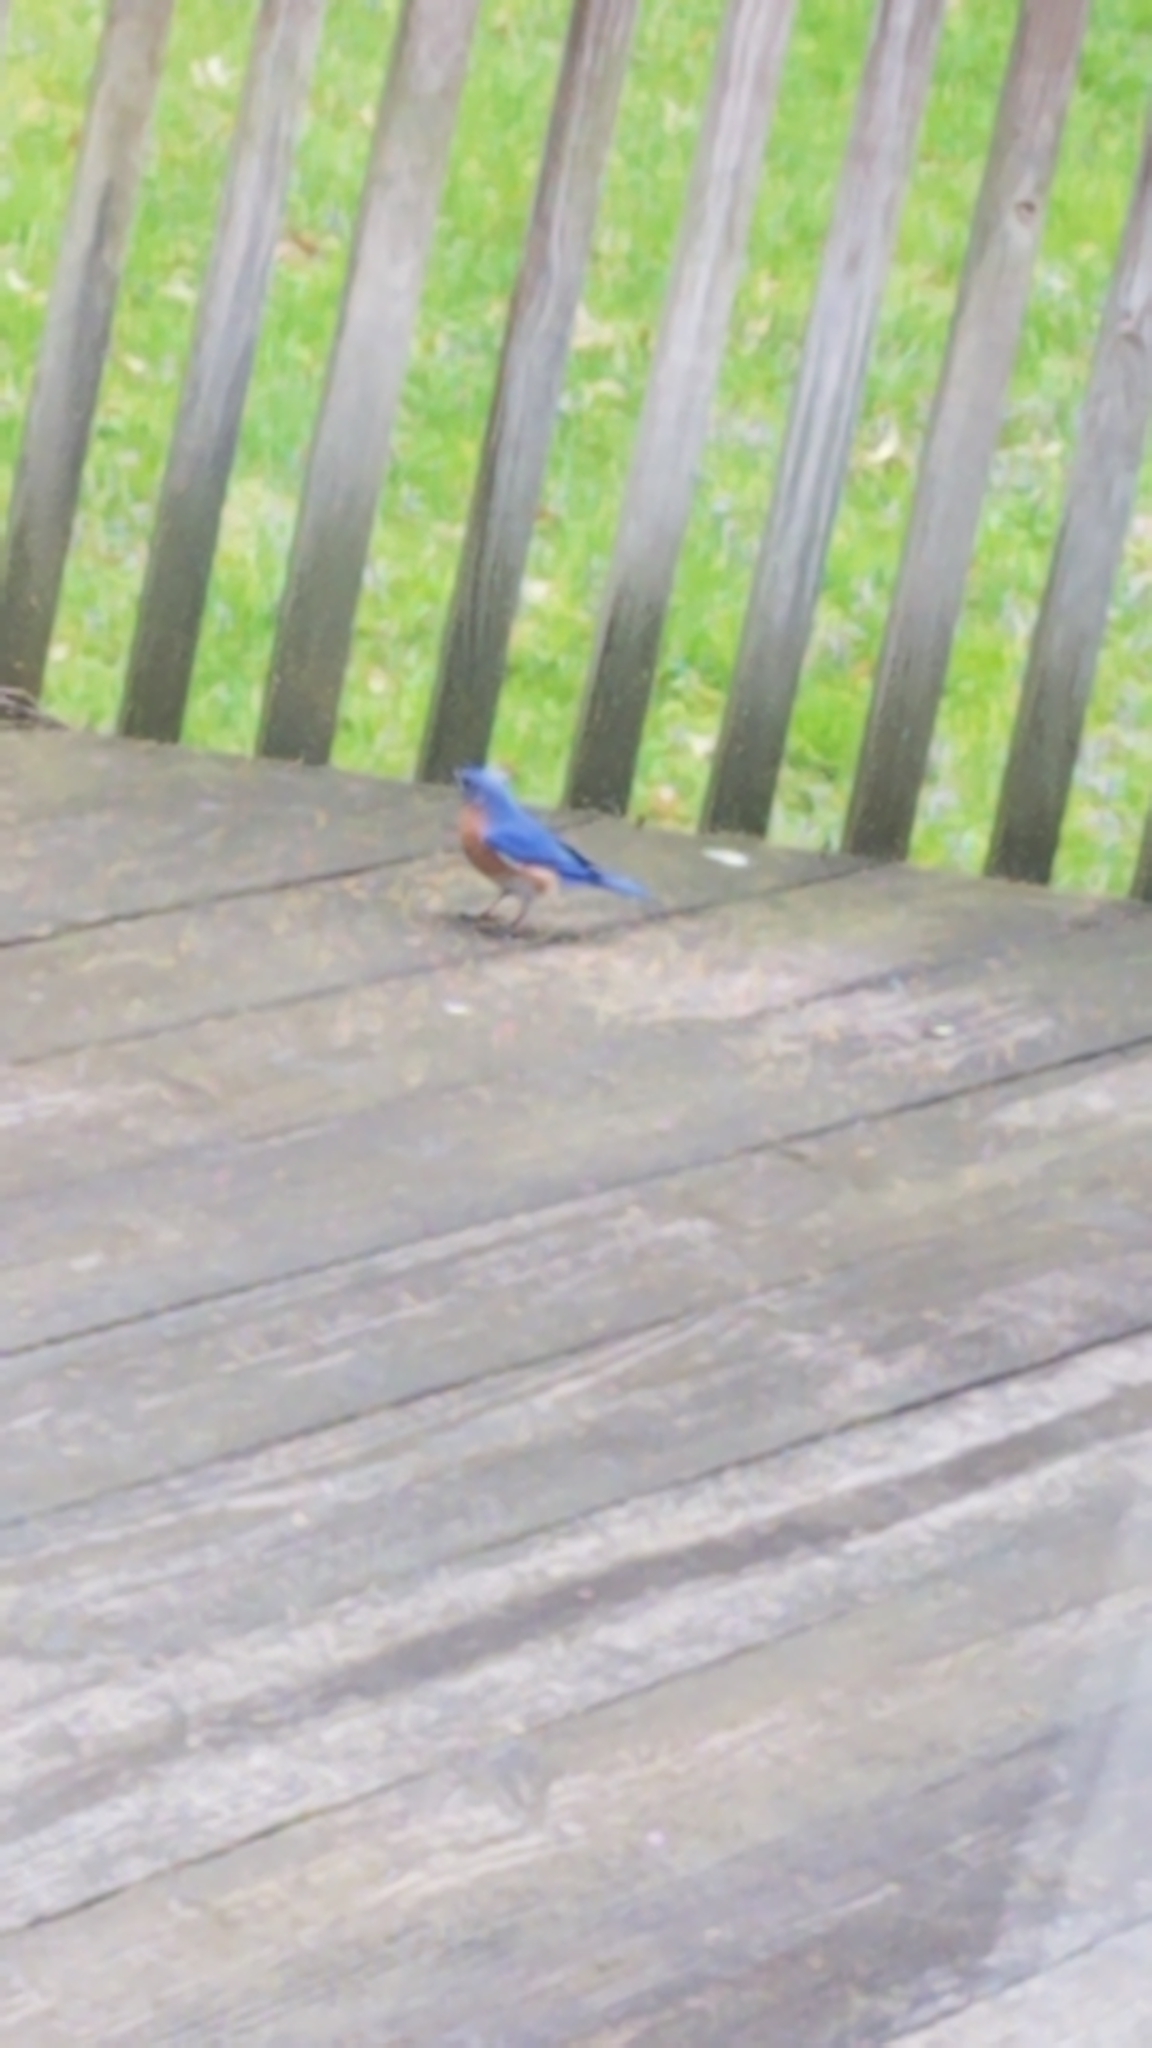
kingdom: Animalia
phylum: Chordata
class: Aves
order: Passeriformes
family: Turdidae
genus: Sialia
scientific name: Sialia sialis
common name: Eastern bluebird
